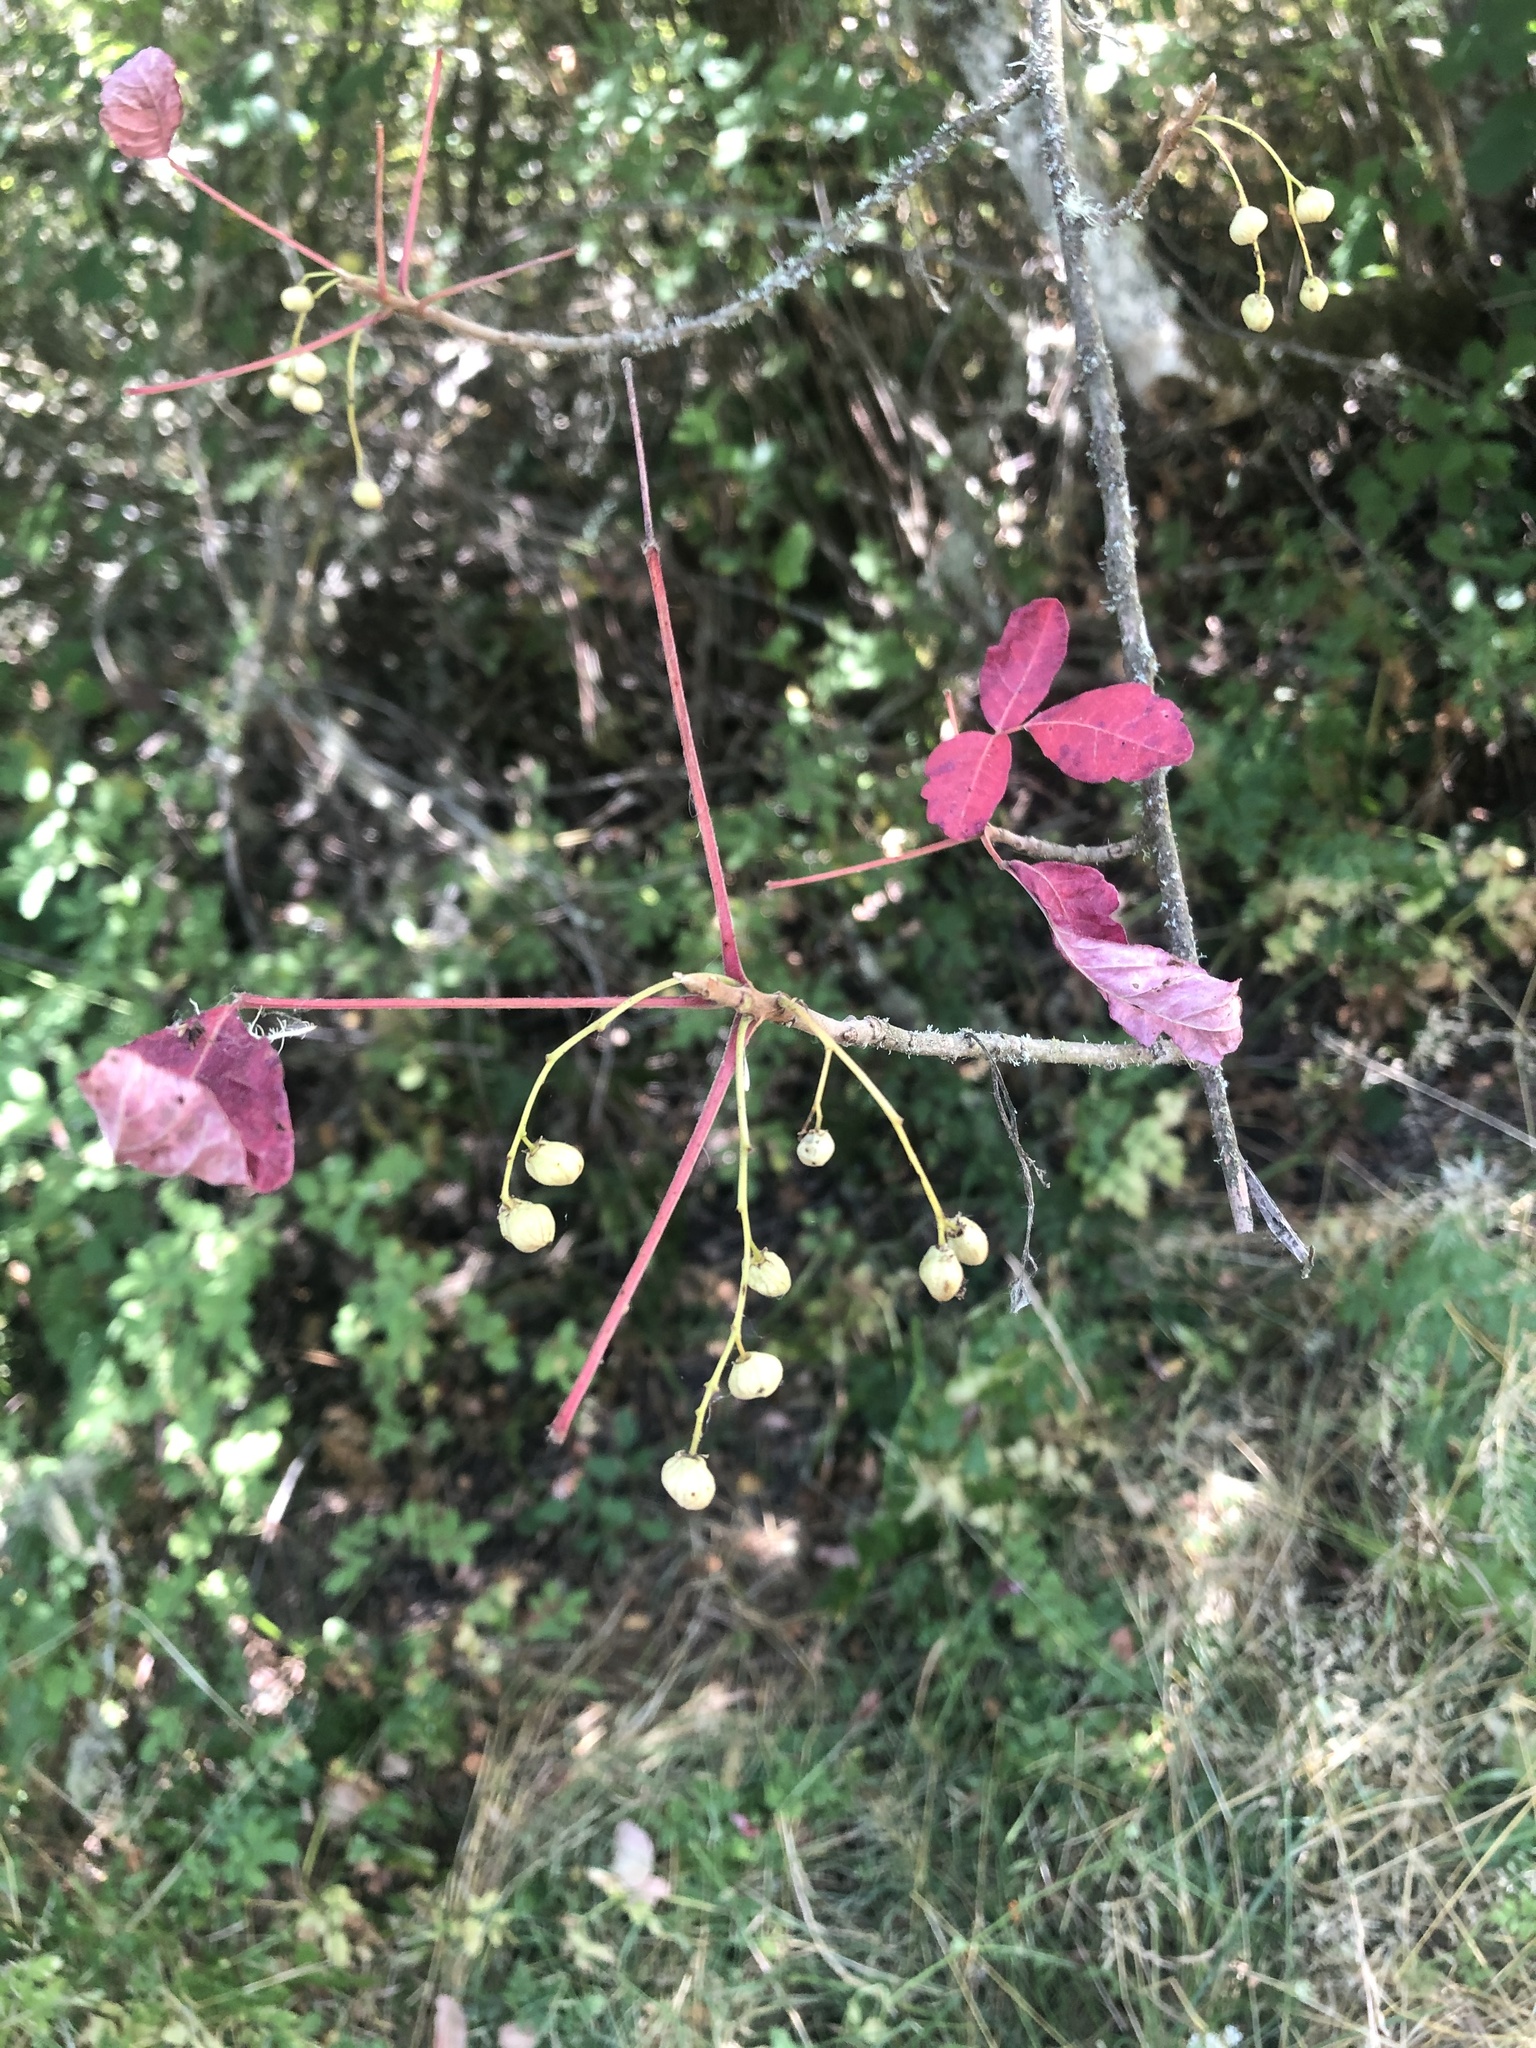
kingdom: Plantae
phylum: Tracheophyta
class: Magnoliopsida
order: Sapindales
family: Anacardiaceae
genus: Toxicodendron
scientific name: Toxicodendron diversilobum
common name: Pacific poison-oak
